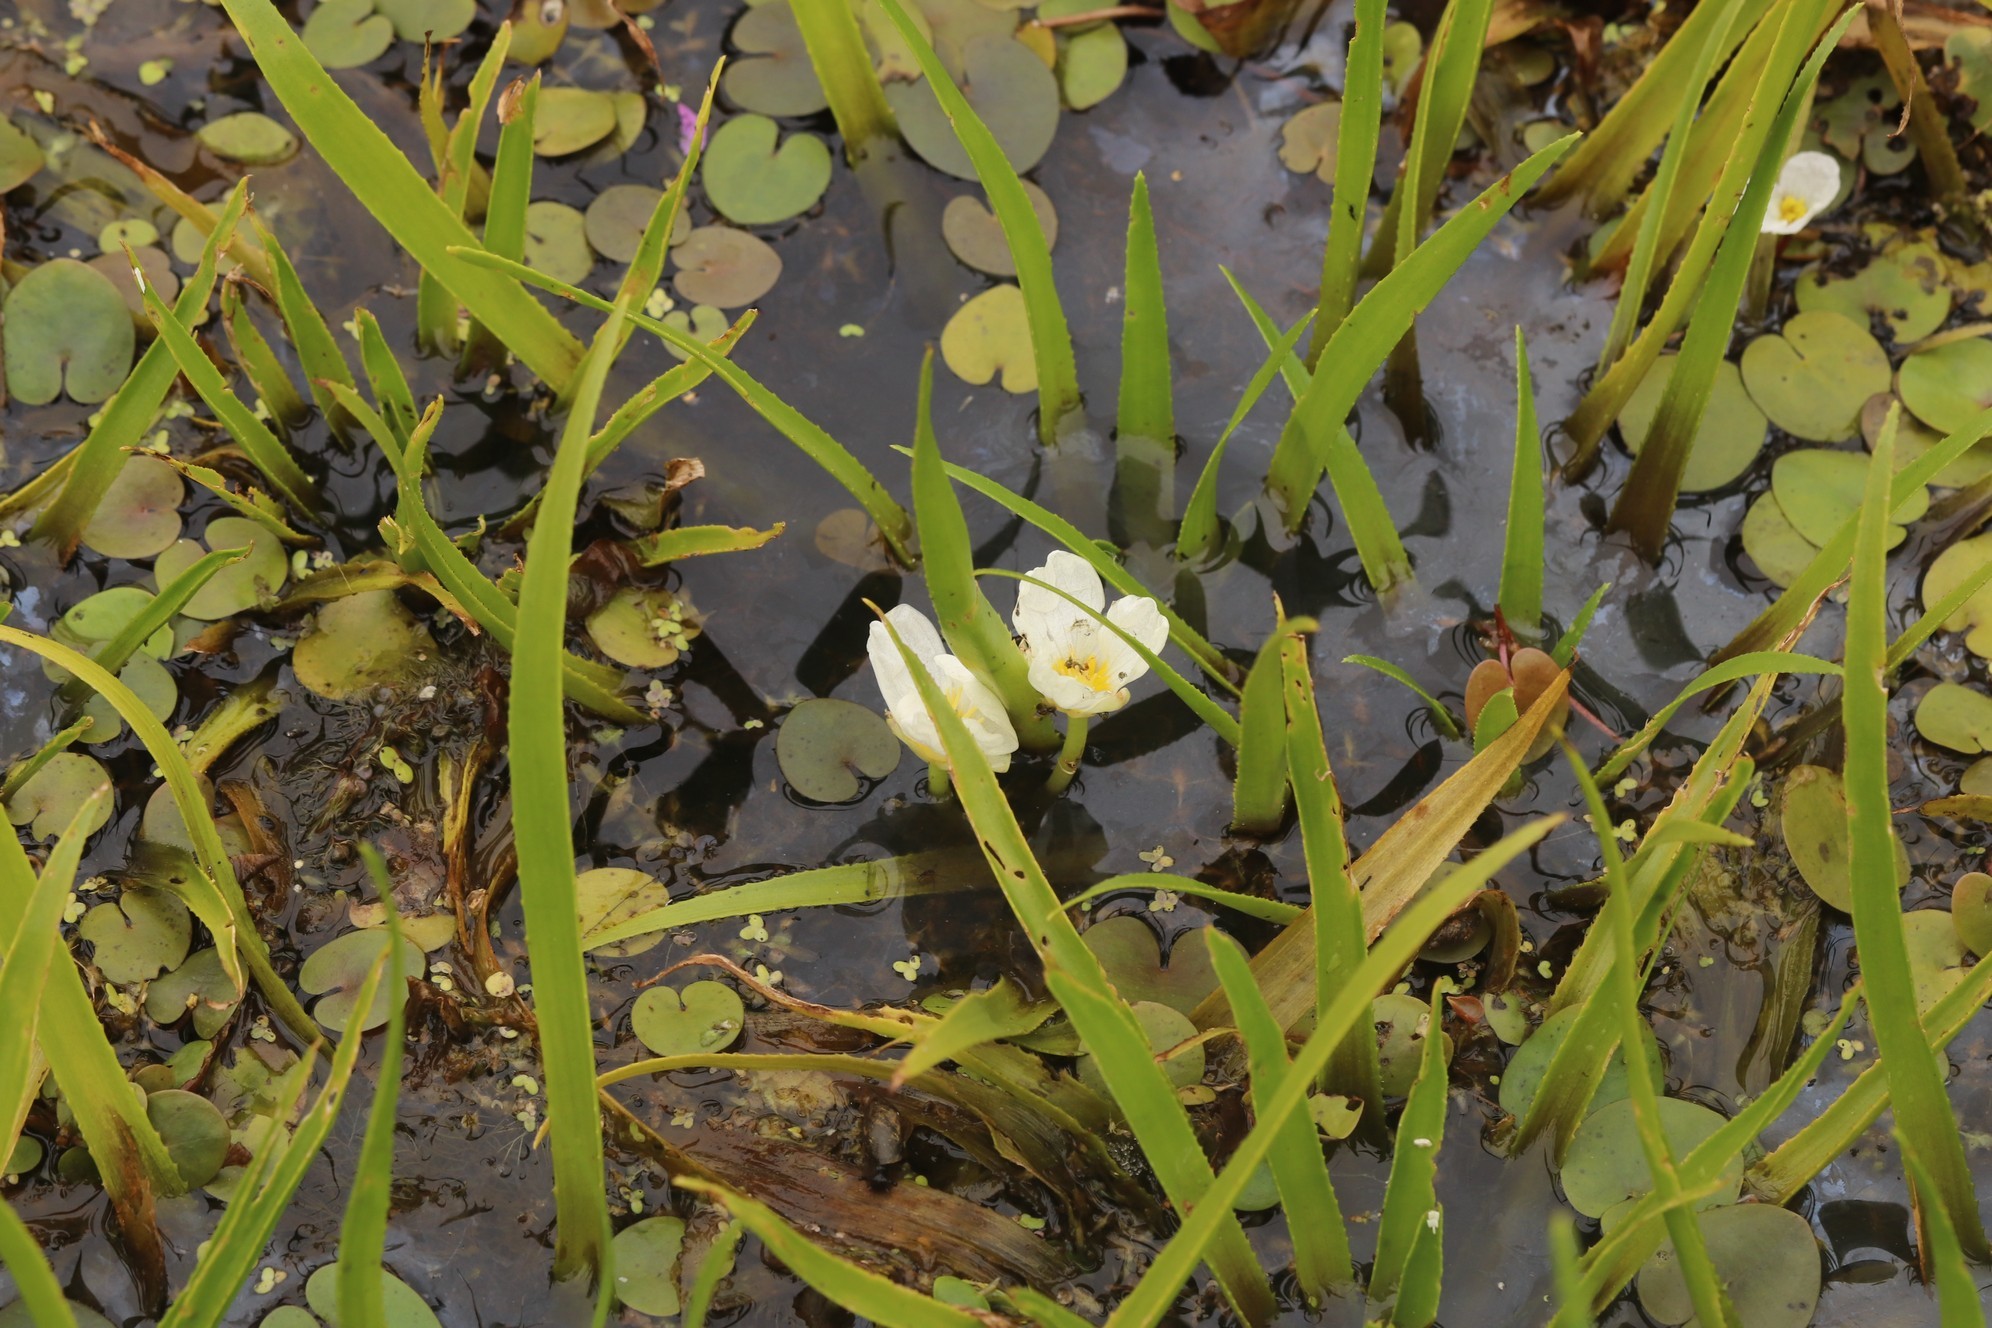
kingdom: Plantae
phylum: Tracheophyta
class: Liliopsida
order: Alismatales
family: Hydrocharitaceae
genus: Stratiotes
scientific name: Stratiotes aloides
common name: Water-soldier
